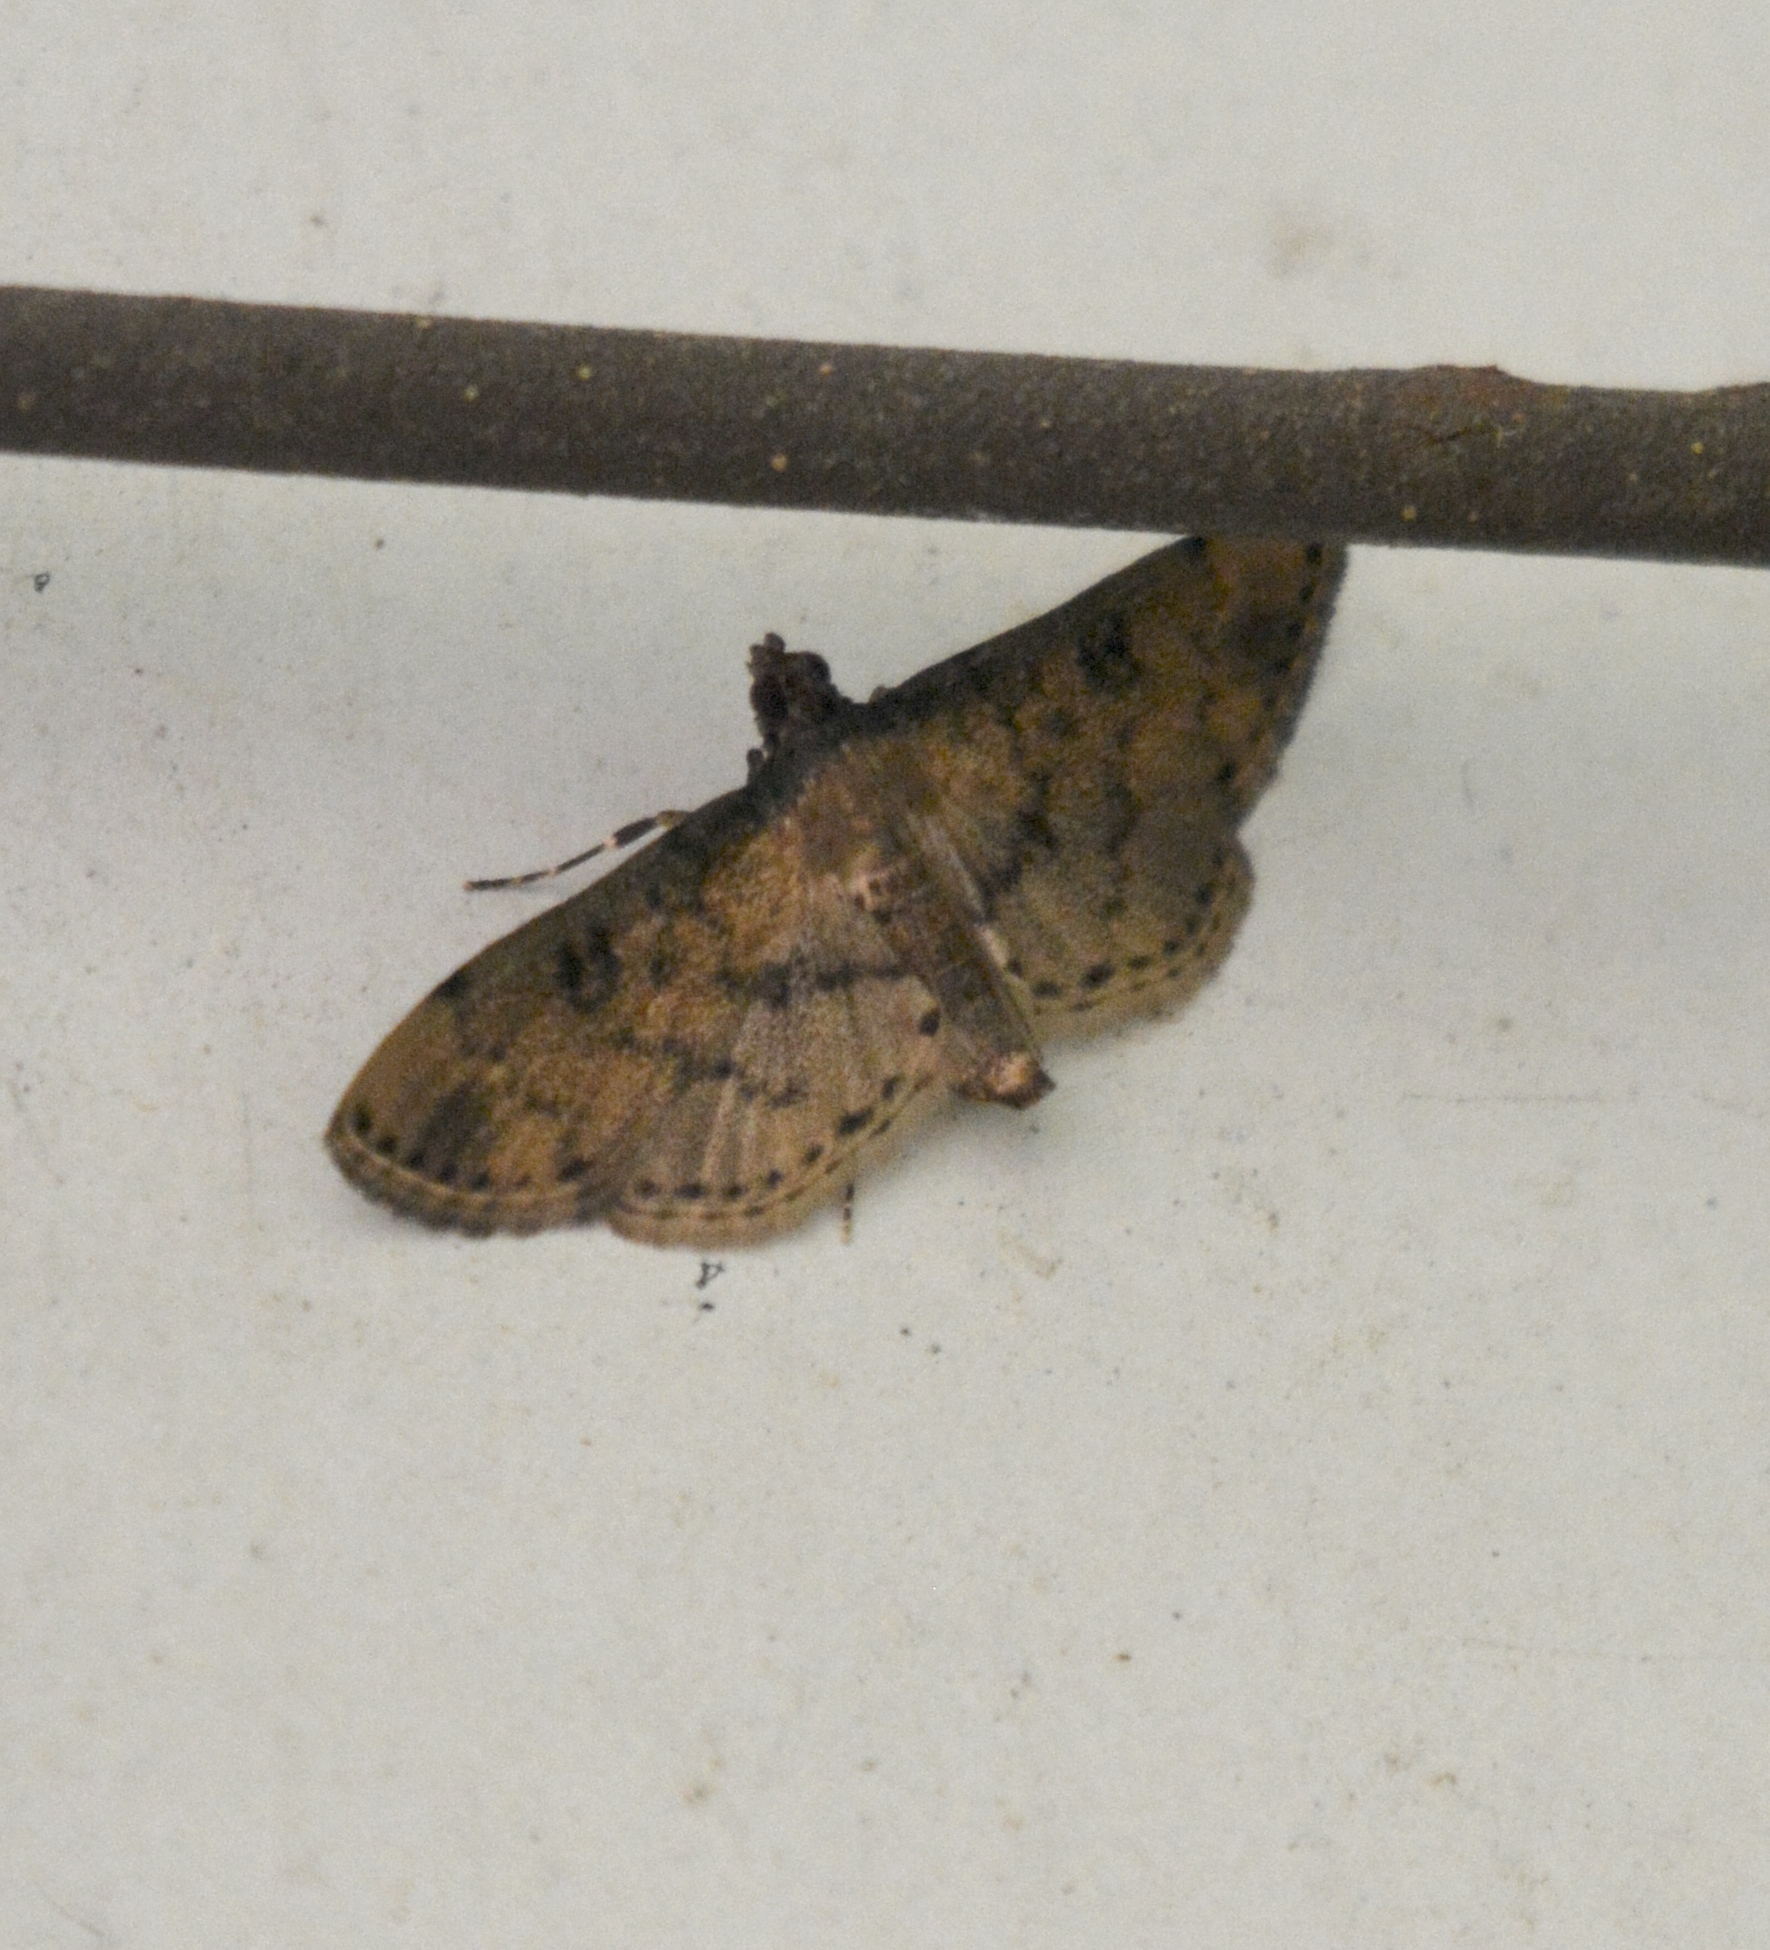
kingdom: Animalia
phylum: Arthropoda
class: Insecta
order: Lepidoptera
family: Crambidae
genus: Nacoleia
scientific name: Nacoleia charesalis
